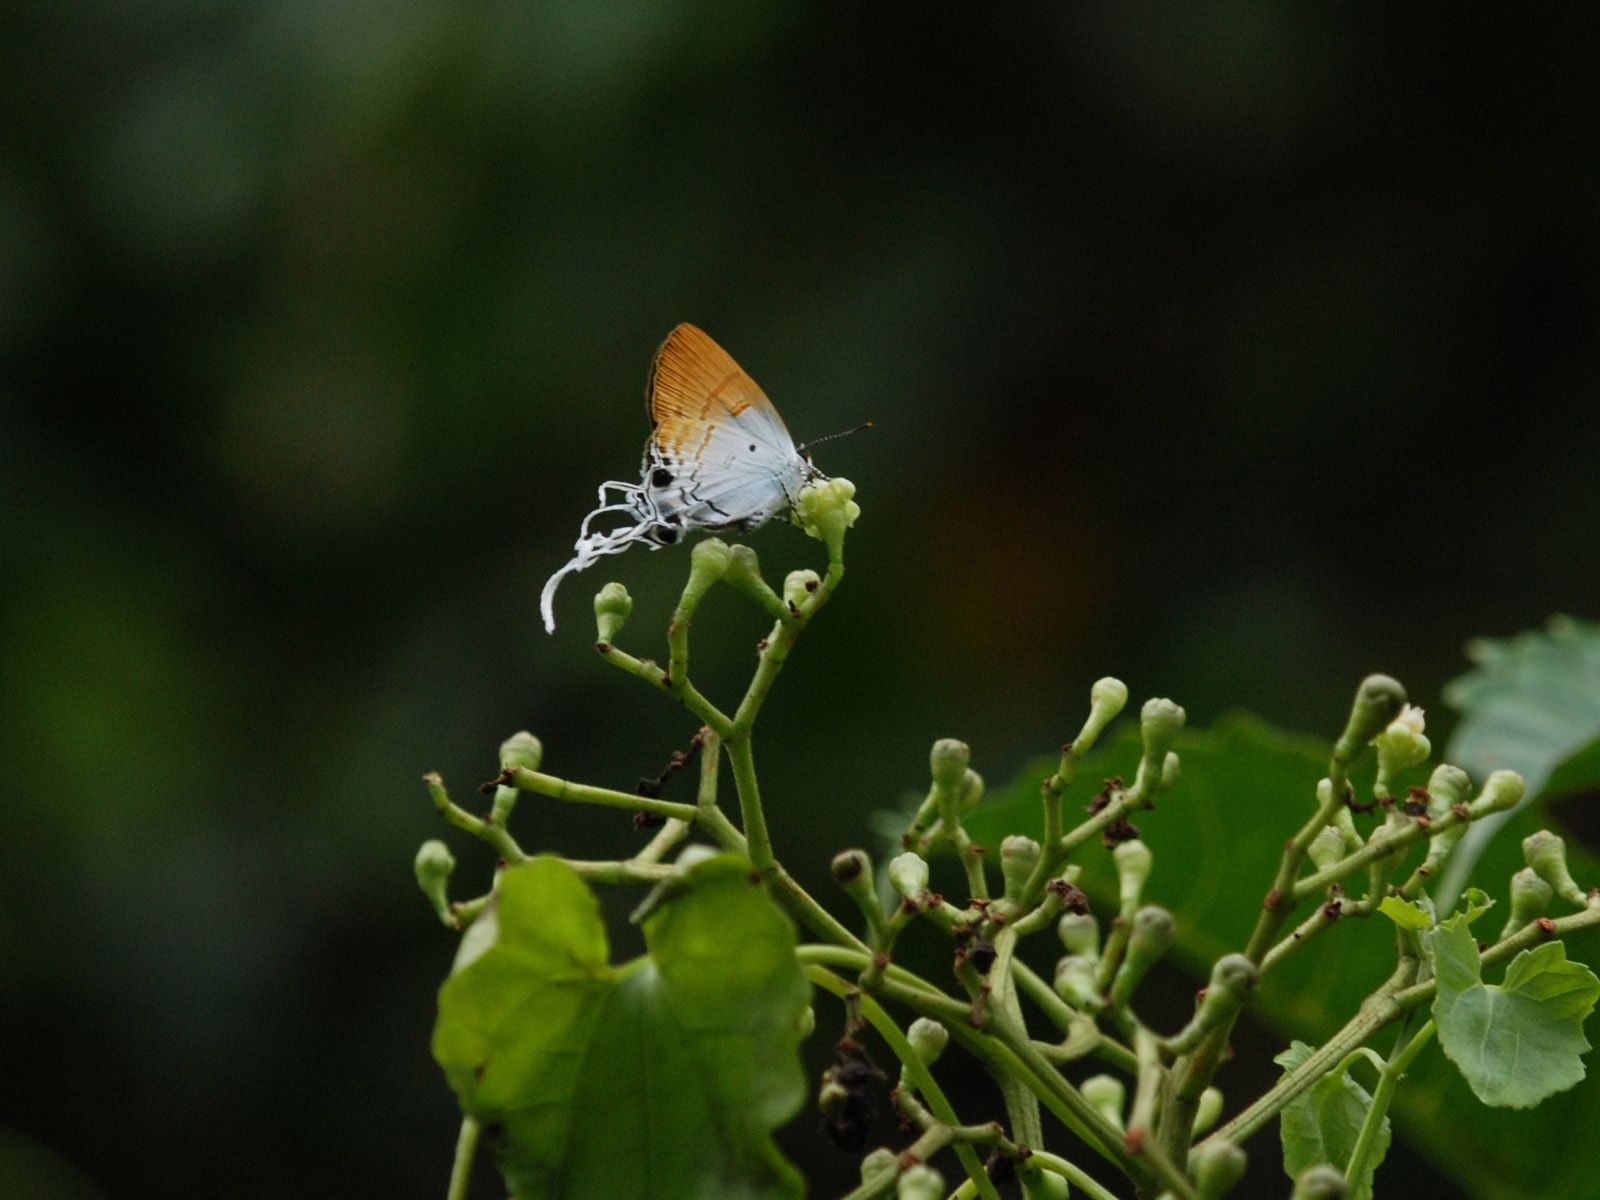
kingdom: Animalia
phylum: Arthropoda
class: Insecta
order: Lepidoptera
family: Lycaenidae
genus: Zeltus
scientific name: Zeltus amasa
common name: Fluffy tit
